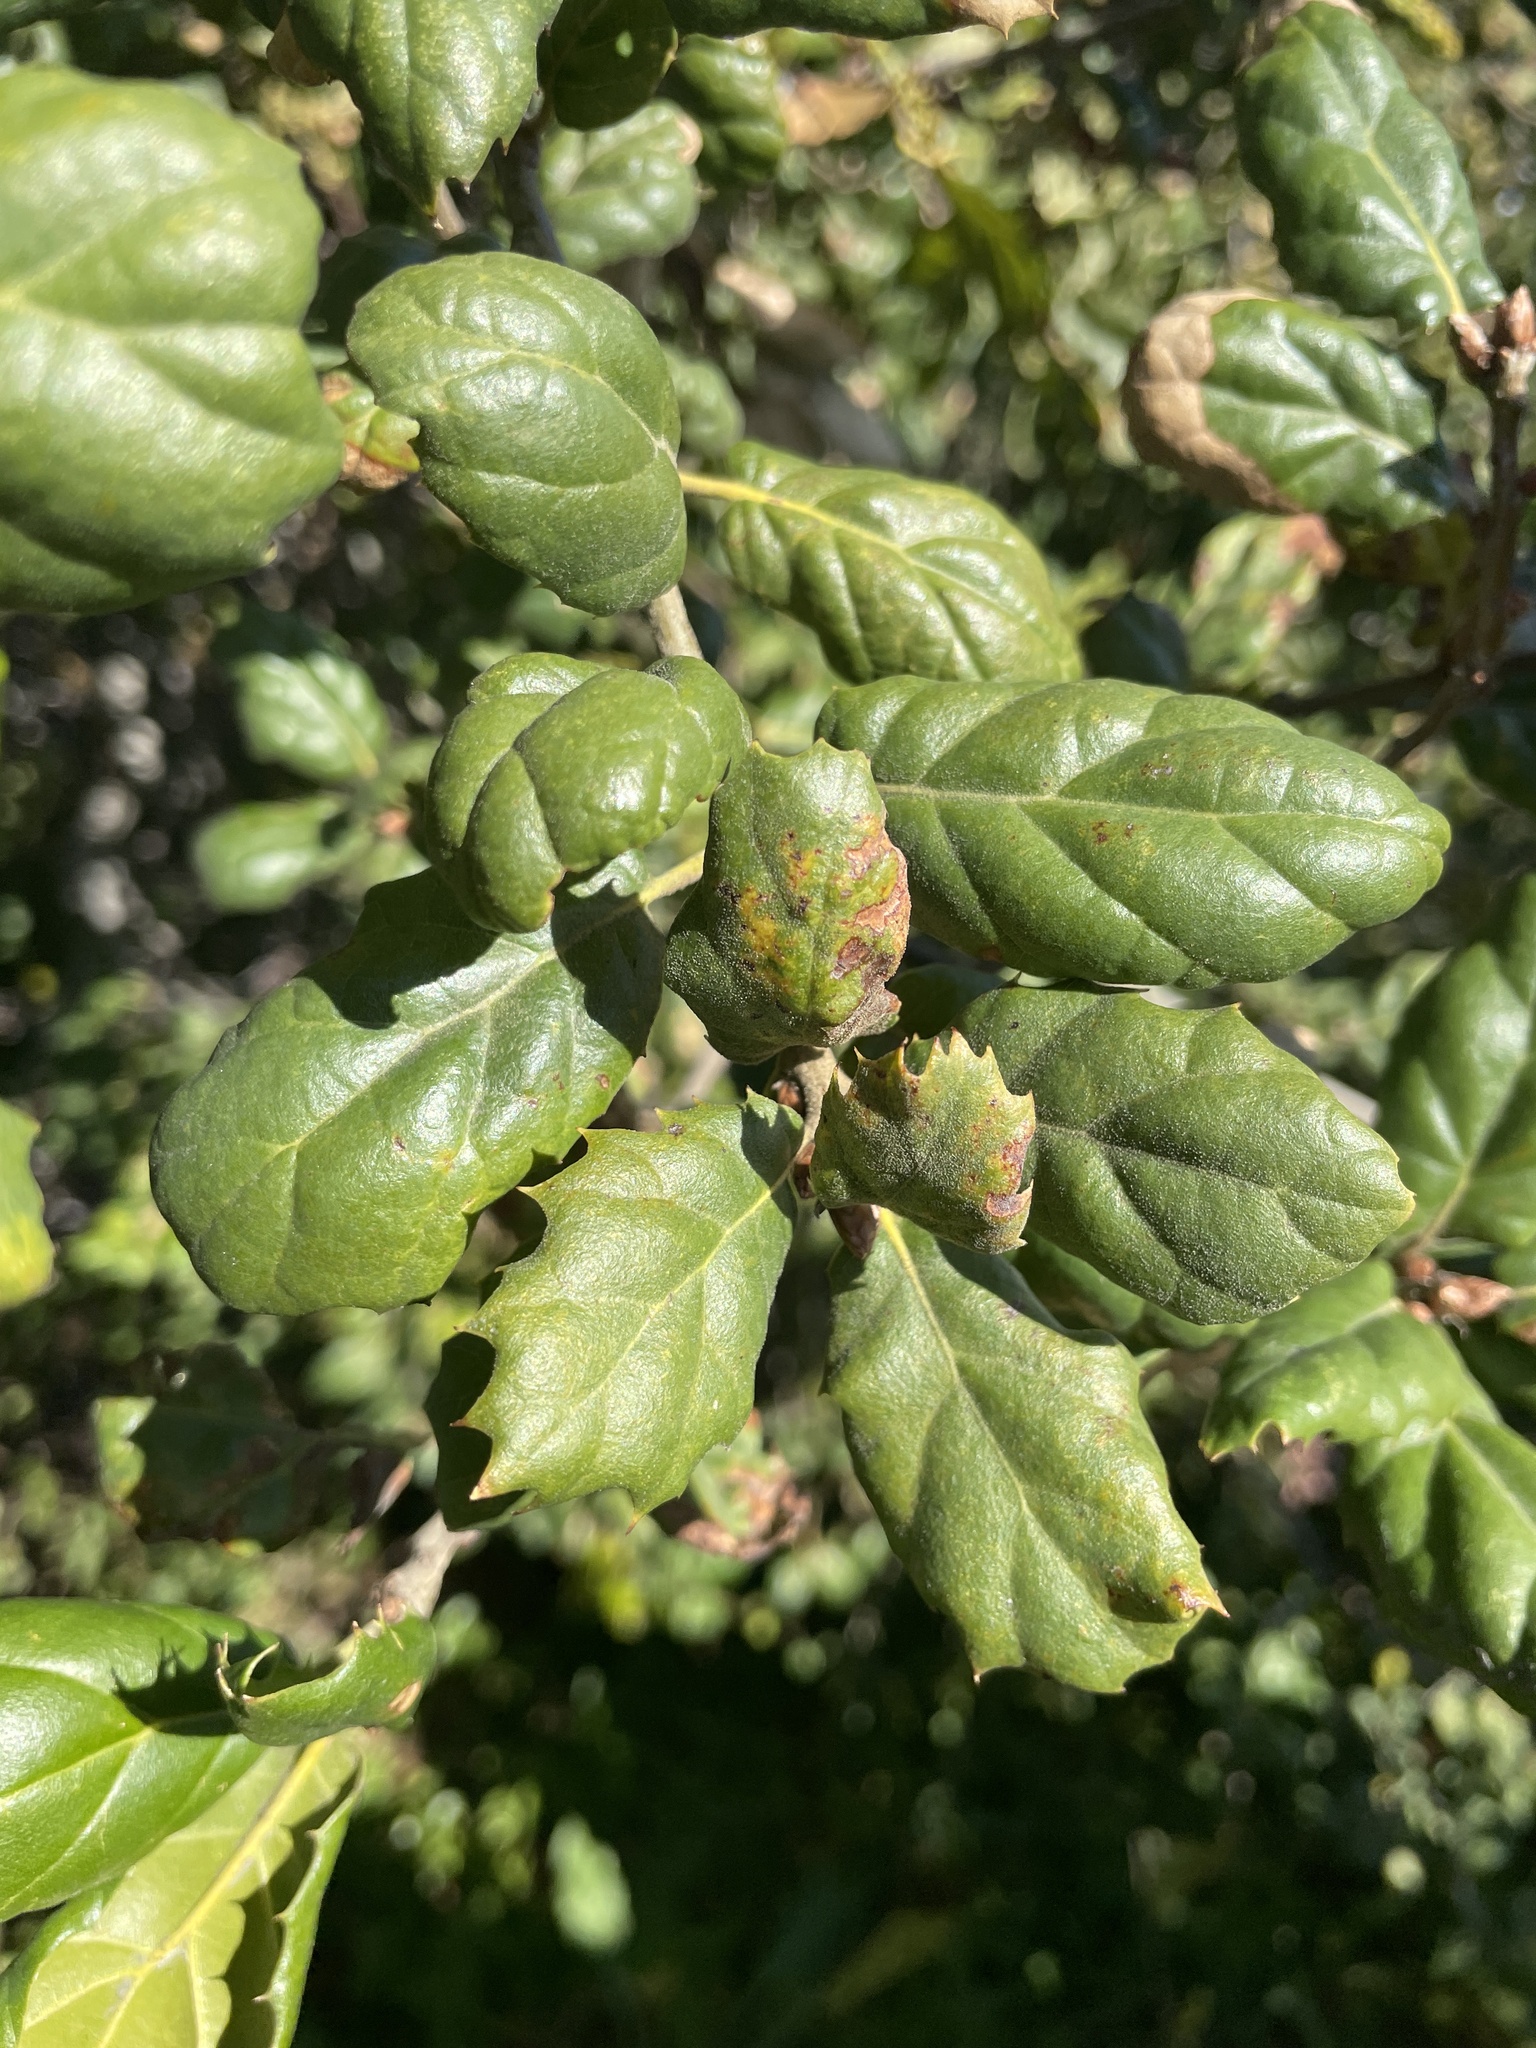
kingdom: Plantae
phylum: Tracheophyta
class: Magnoliopsida
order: Fagales
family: Fagaceae
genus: Quercus
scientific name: Quercus agrifolia
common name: California live oak
